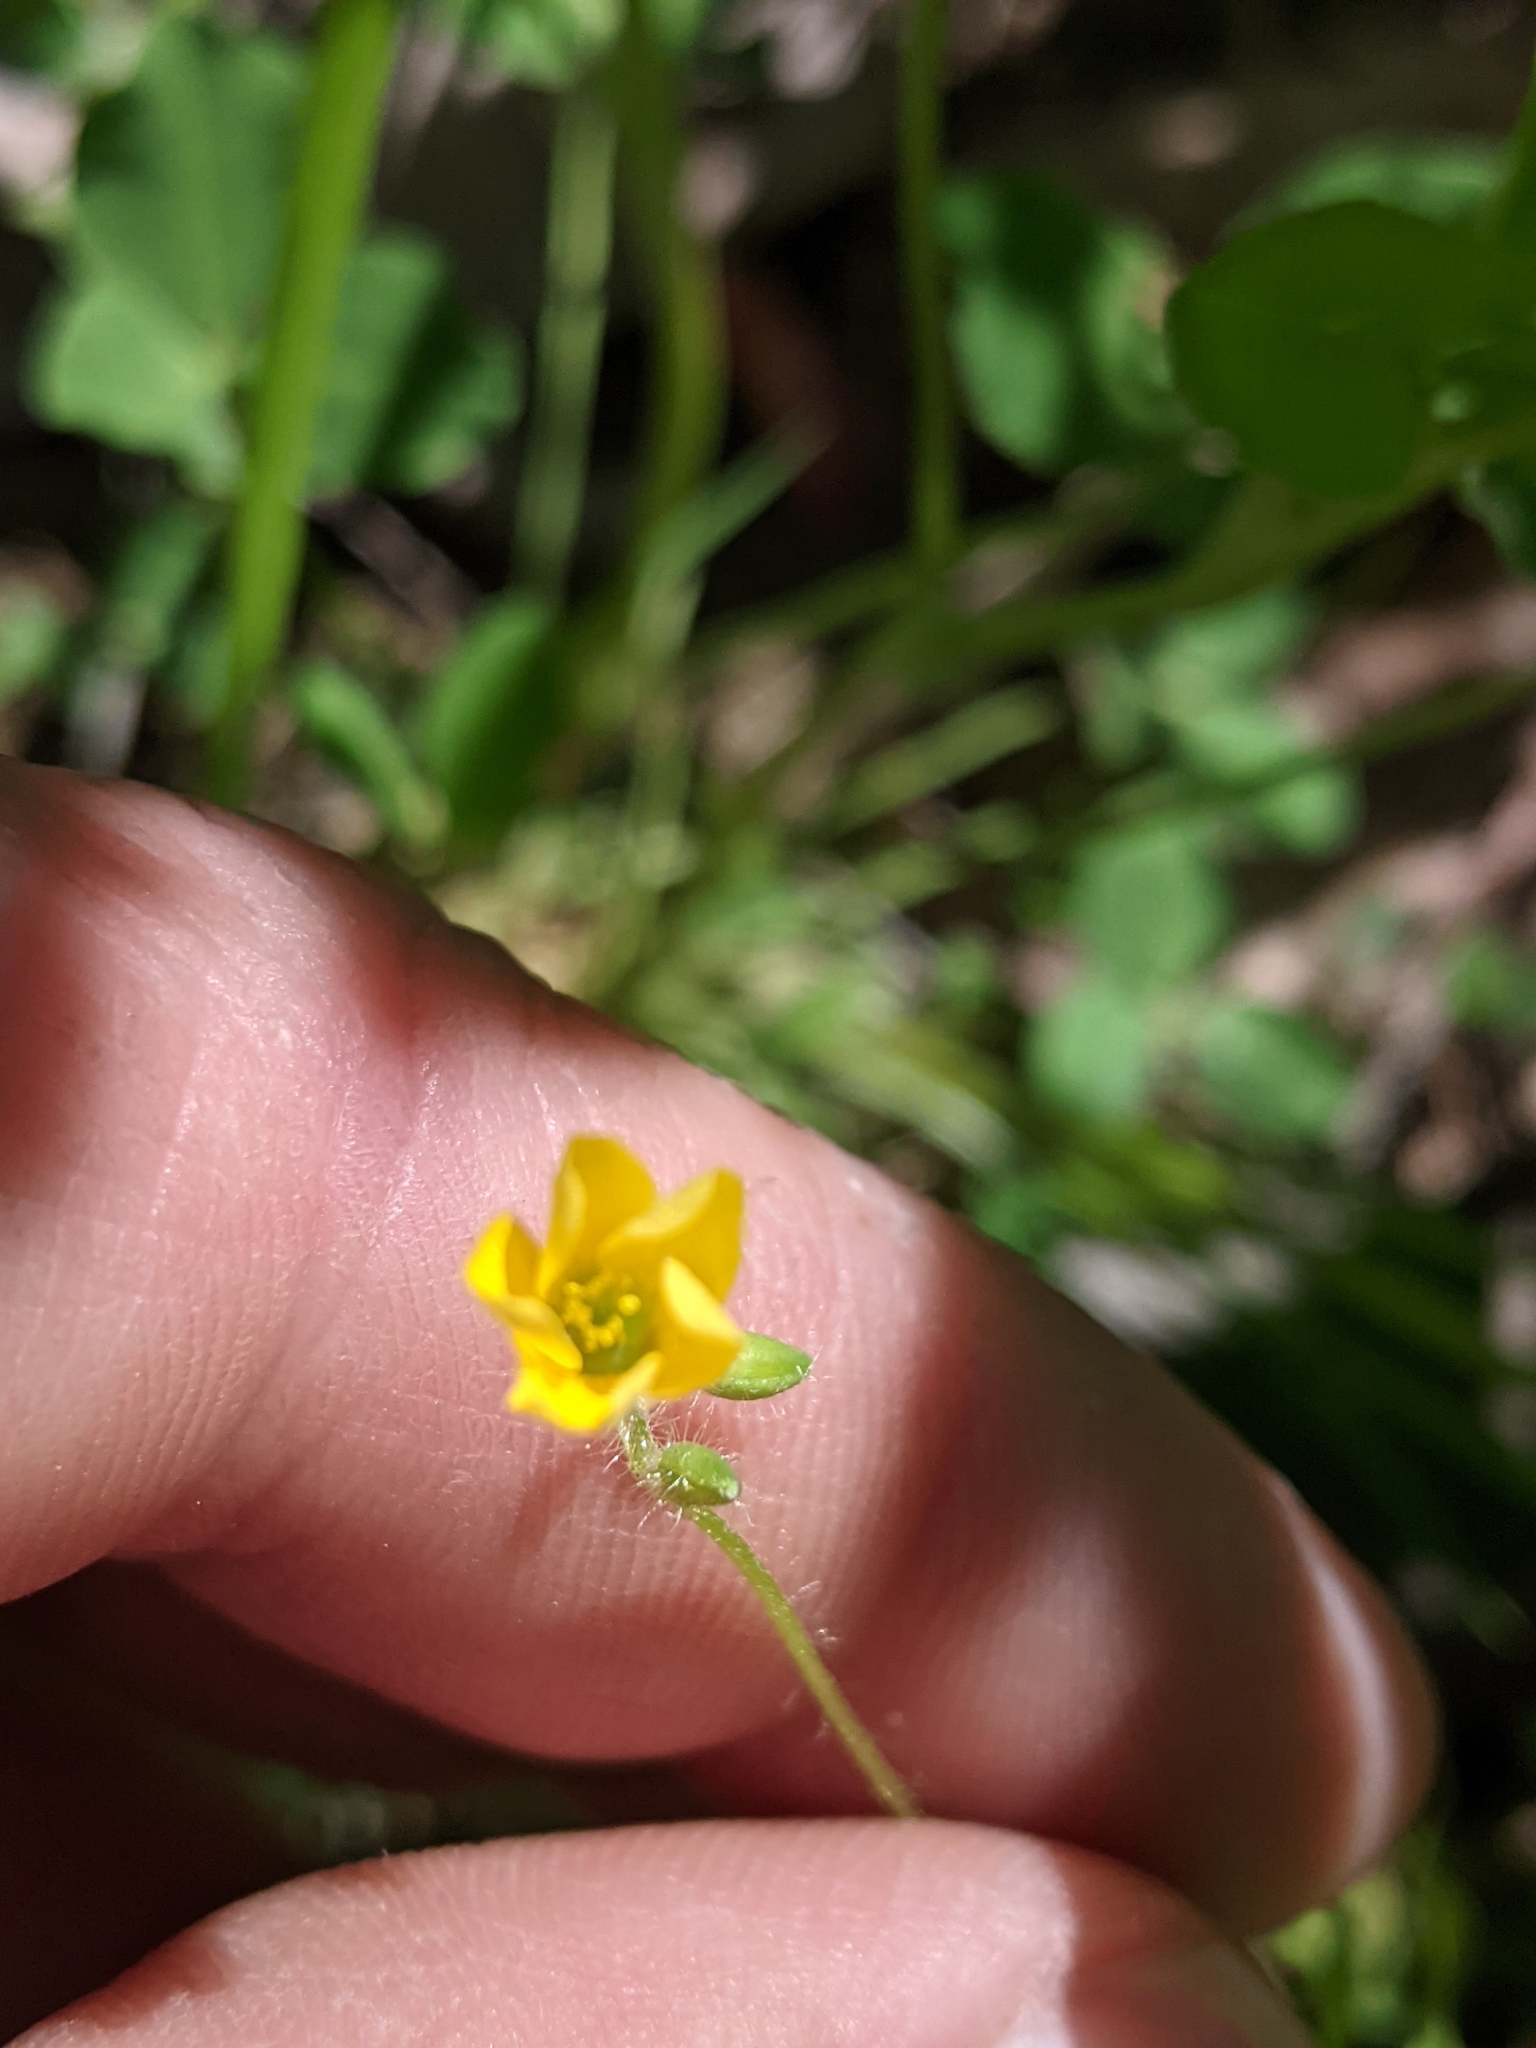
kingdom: Plantae
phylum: Tracheophyta
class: Magnoliopsida
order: Oxalidales
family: Oxalidaceae
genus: Oxalis
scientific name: Oxalis stricta
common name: Upright yellow-sorrel
